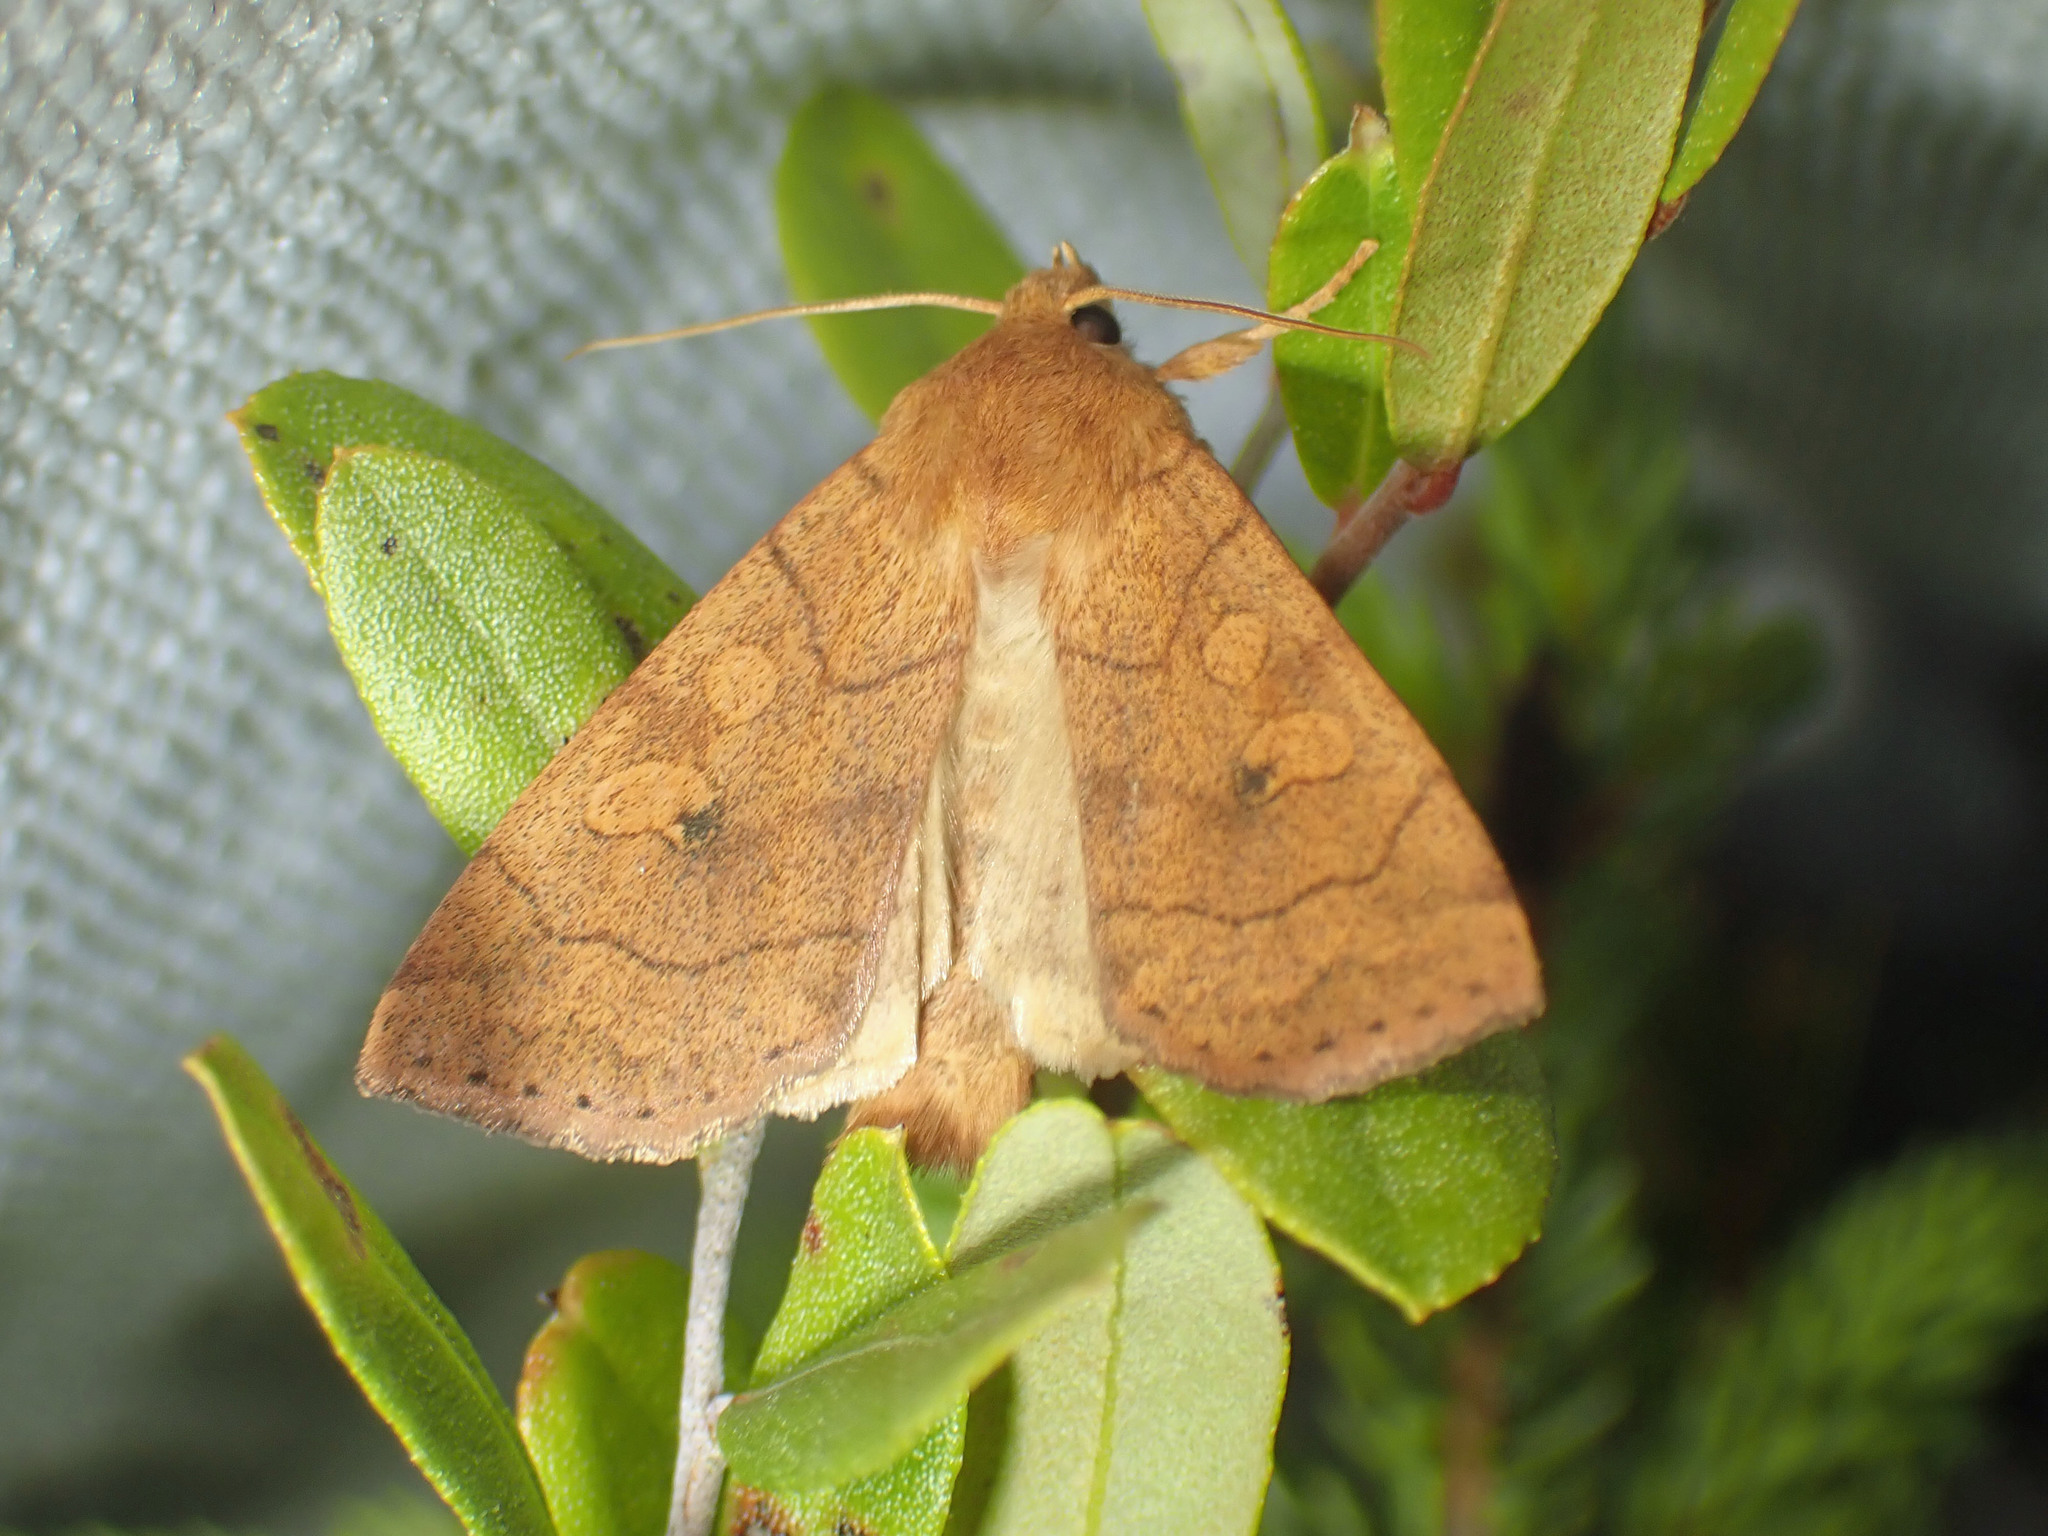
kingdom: Animalia
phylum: Arthropoda
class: Insecta
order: Lepidoptera
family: Noctuidae
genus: Enargia
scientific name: Enargia infumata
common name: Smoked sallow
